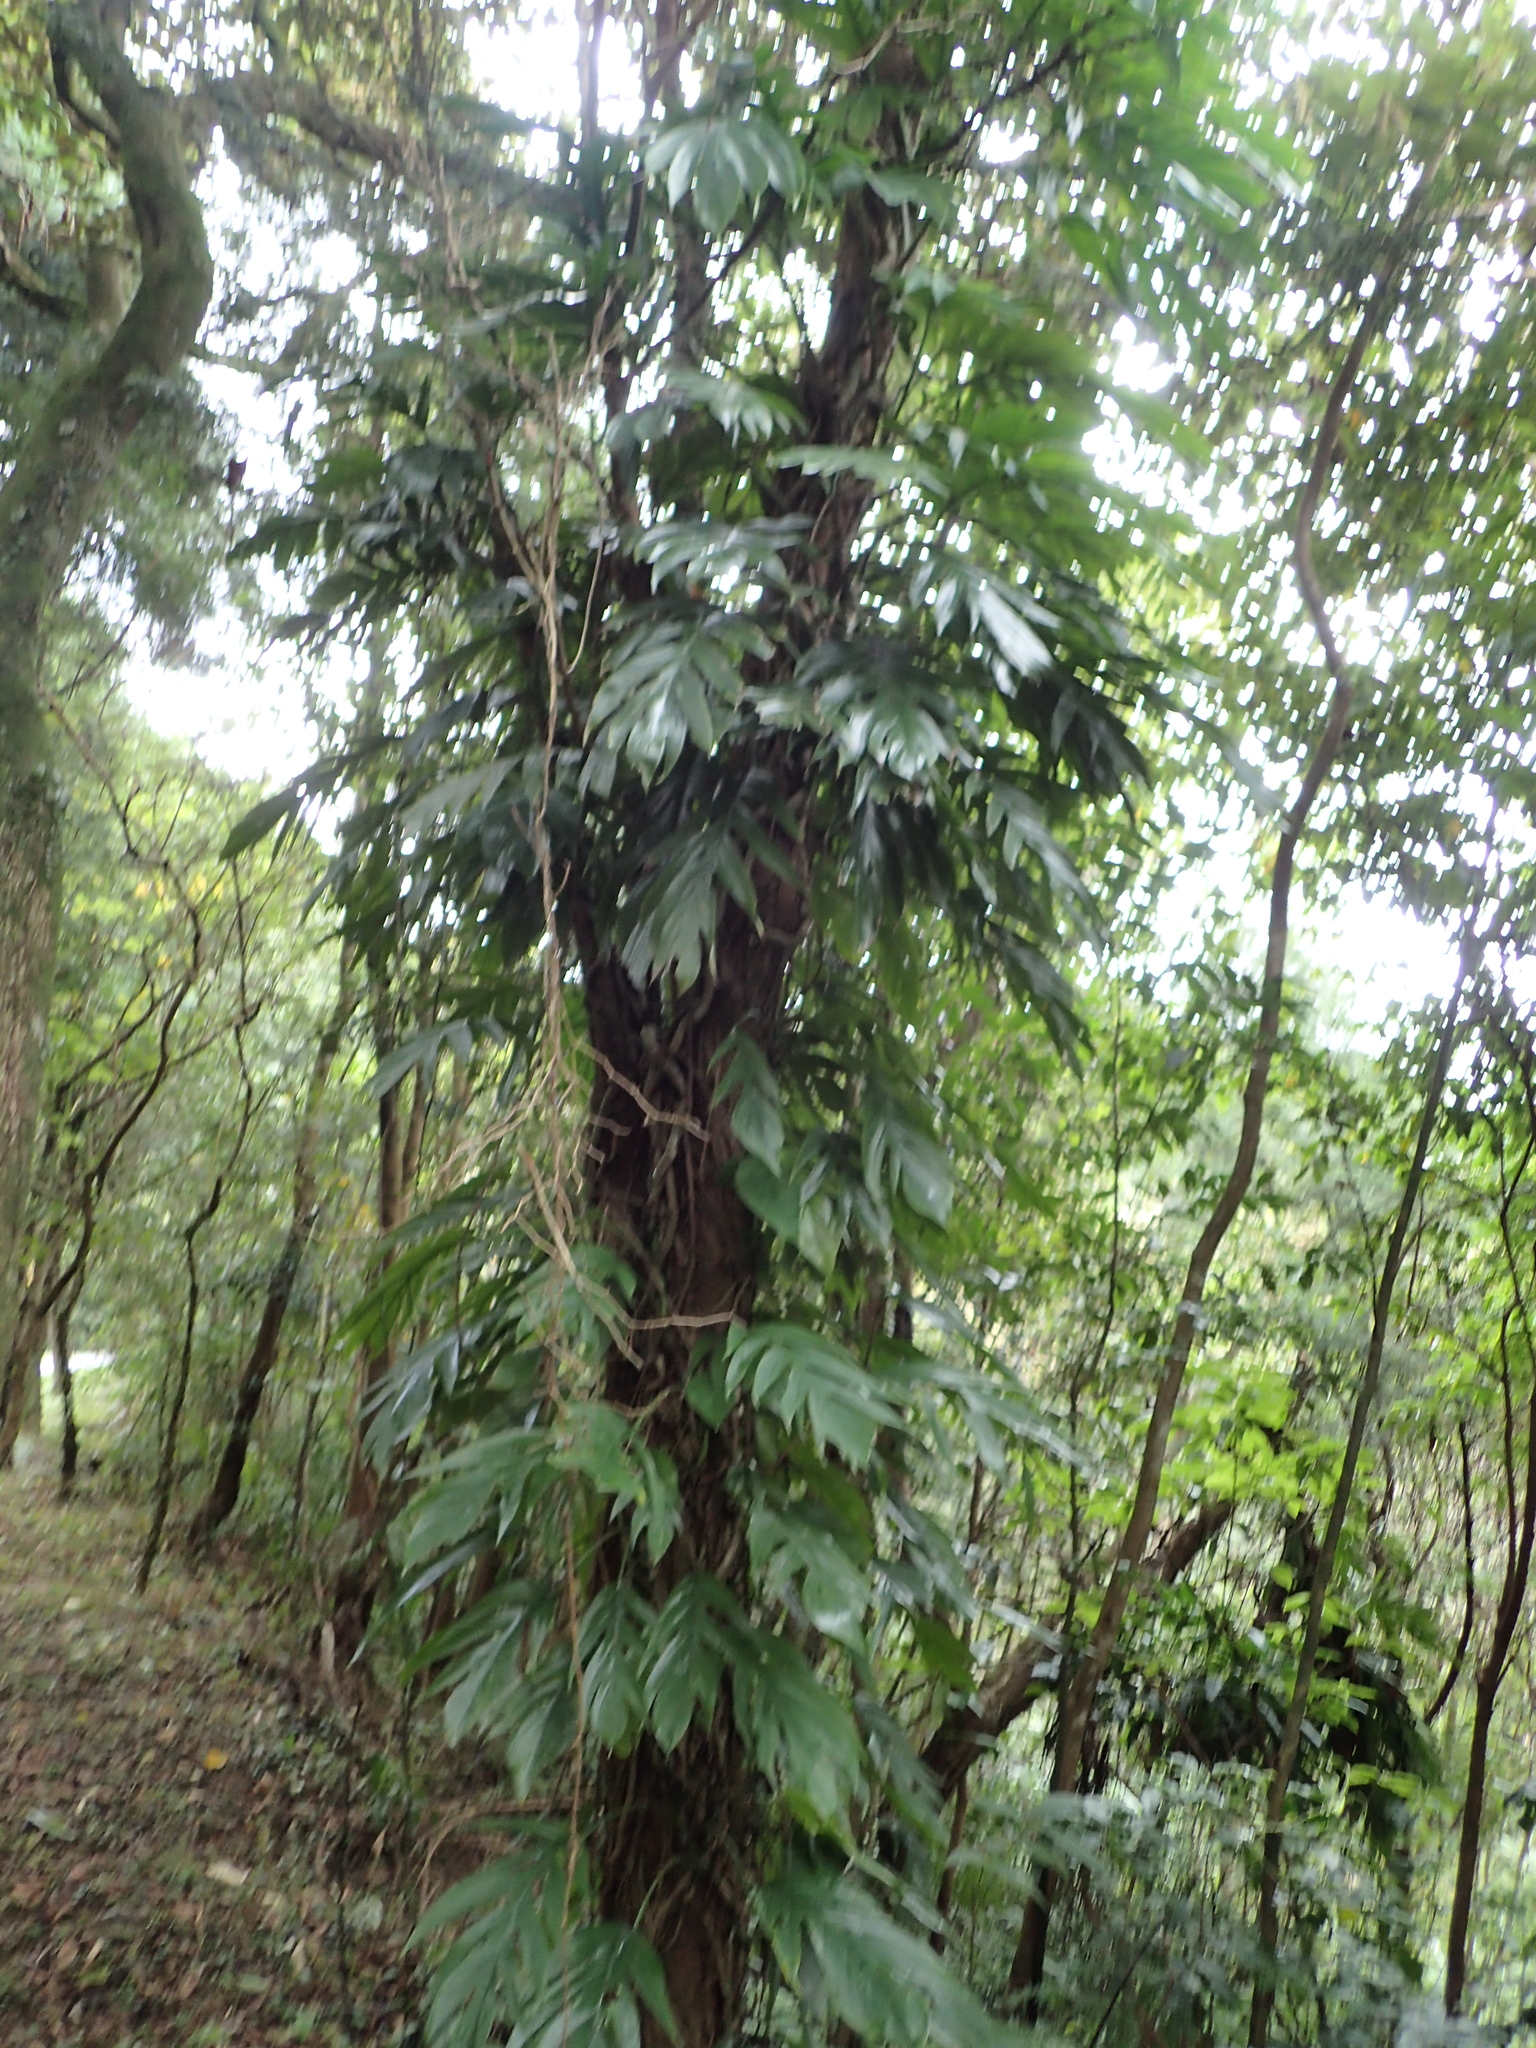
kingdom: Plantae
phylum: Tracheophyta
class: Liliopsida
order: Alismatales
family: Araceae
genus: Epipremnum
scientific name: Epipremnum pinnatum
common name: Centipede tongavine
